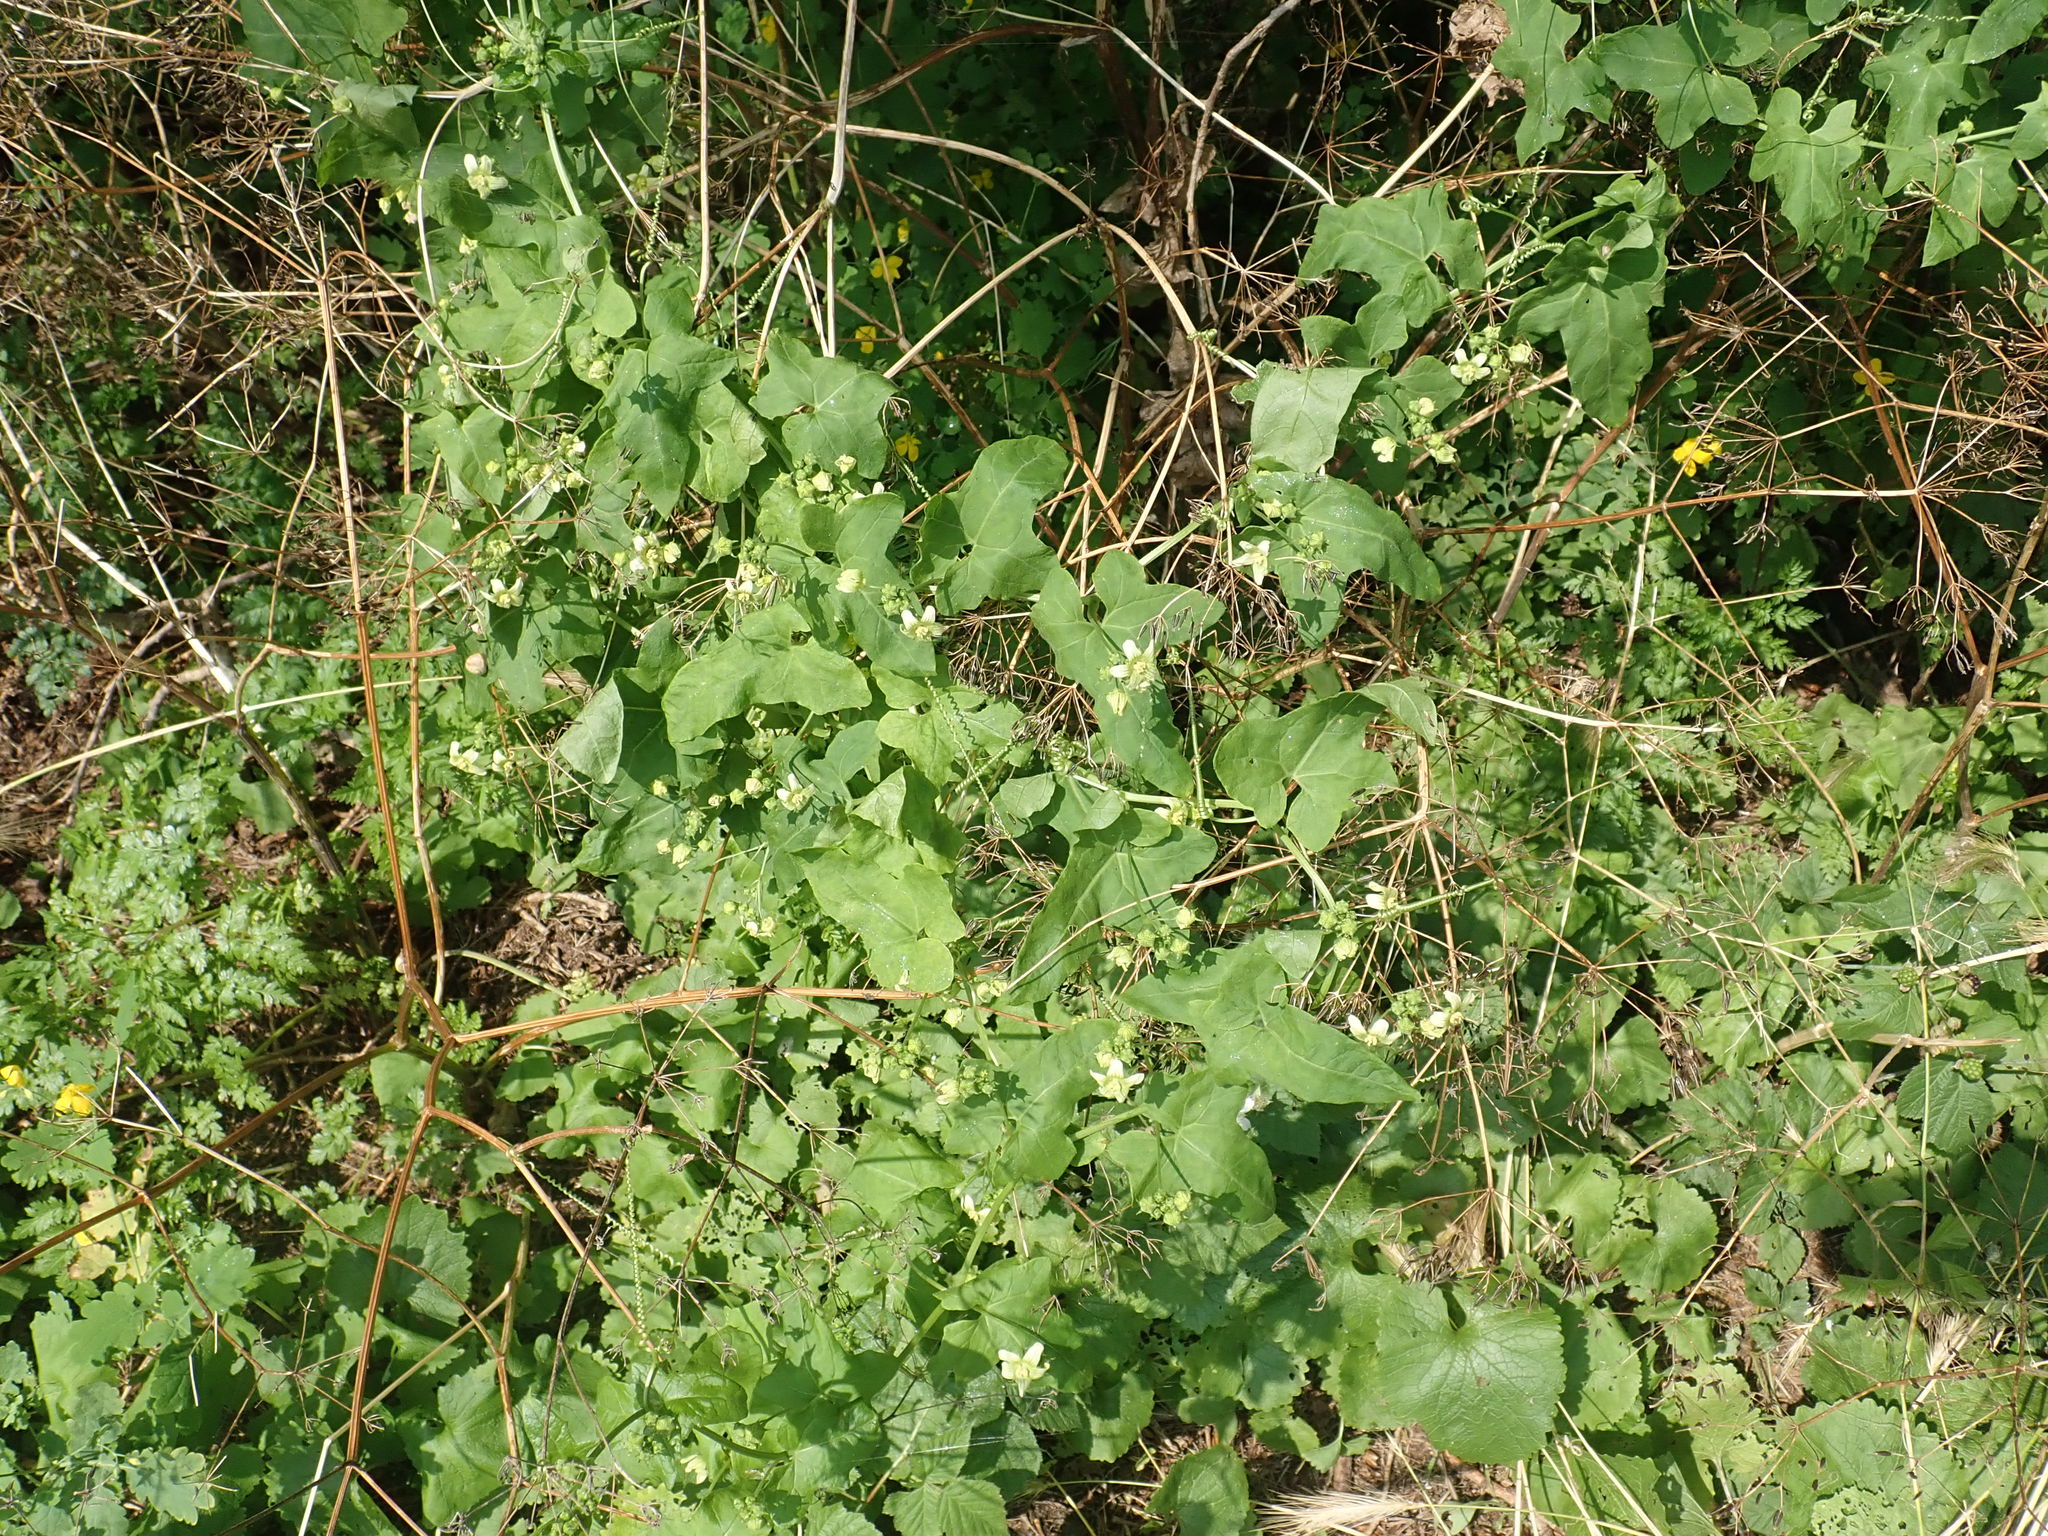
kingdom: Plantae
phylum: Tracheophyta
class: Magnoliopsida
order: Cucurbitales
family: Cucurbitaceae
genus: Bryonia
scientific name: Bryonia cretica
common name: Cretan bryony
